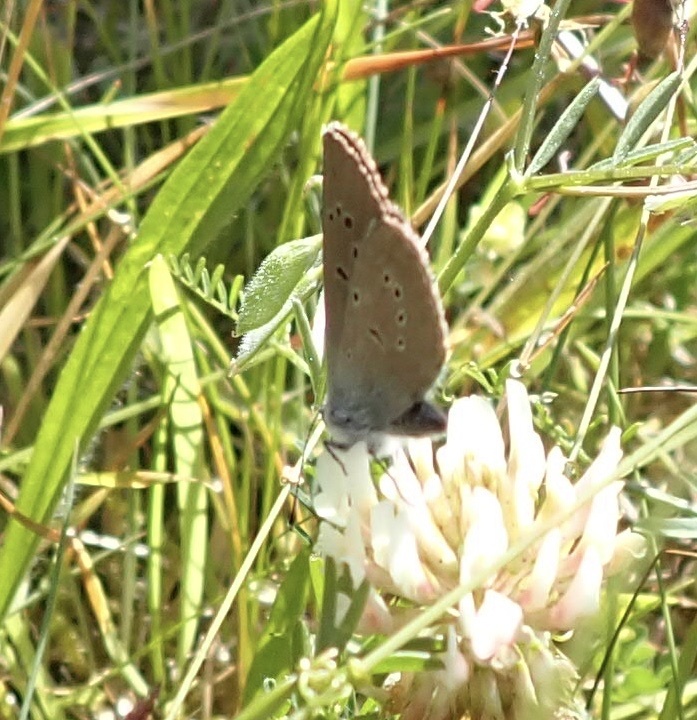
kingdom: Animalia
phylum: Arthropoda
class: Insecta
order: Lepidoptera
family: Lycaenidae
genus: Cyaniris
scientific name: Cyaniris semiargus
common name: Mazarine blue
